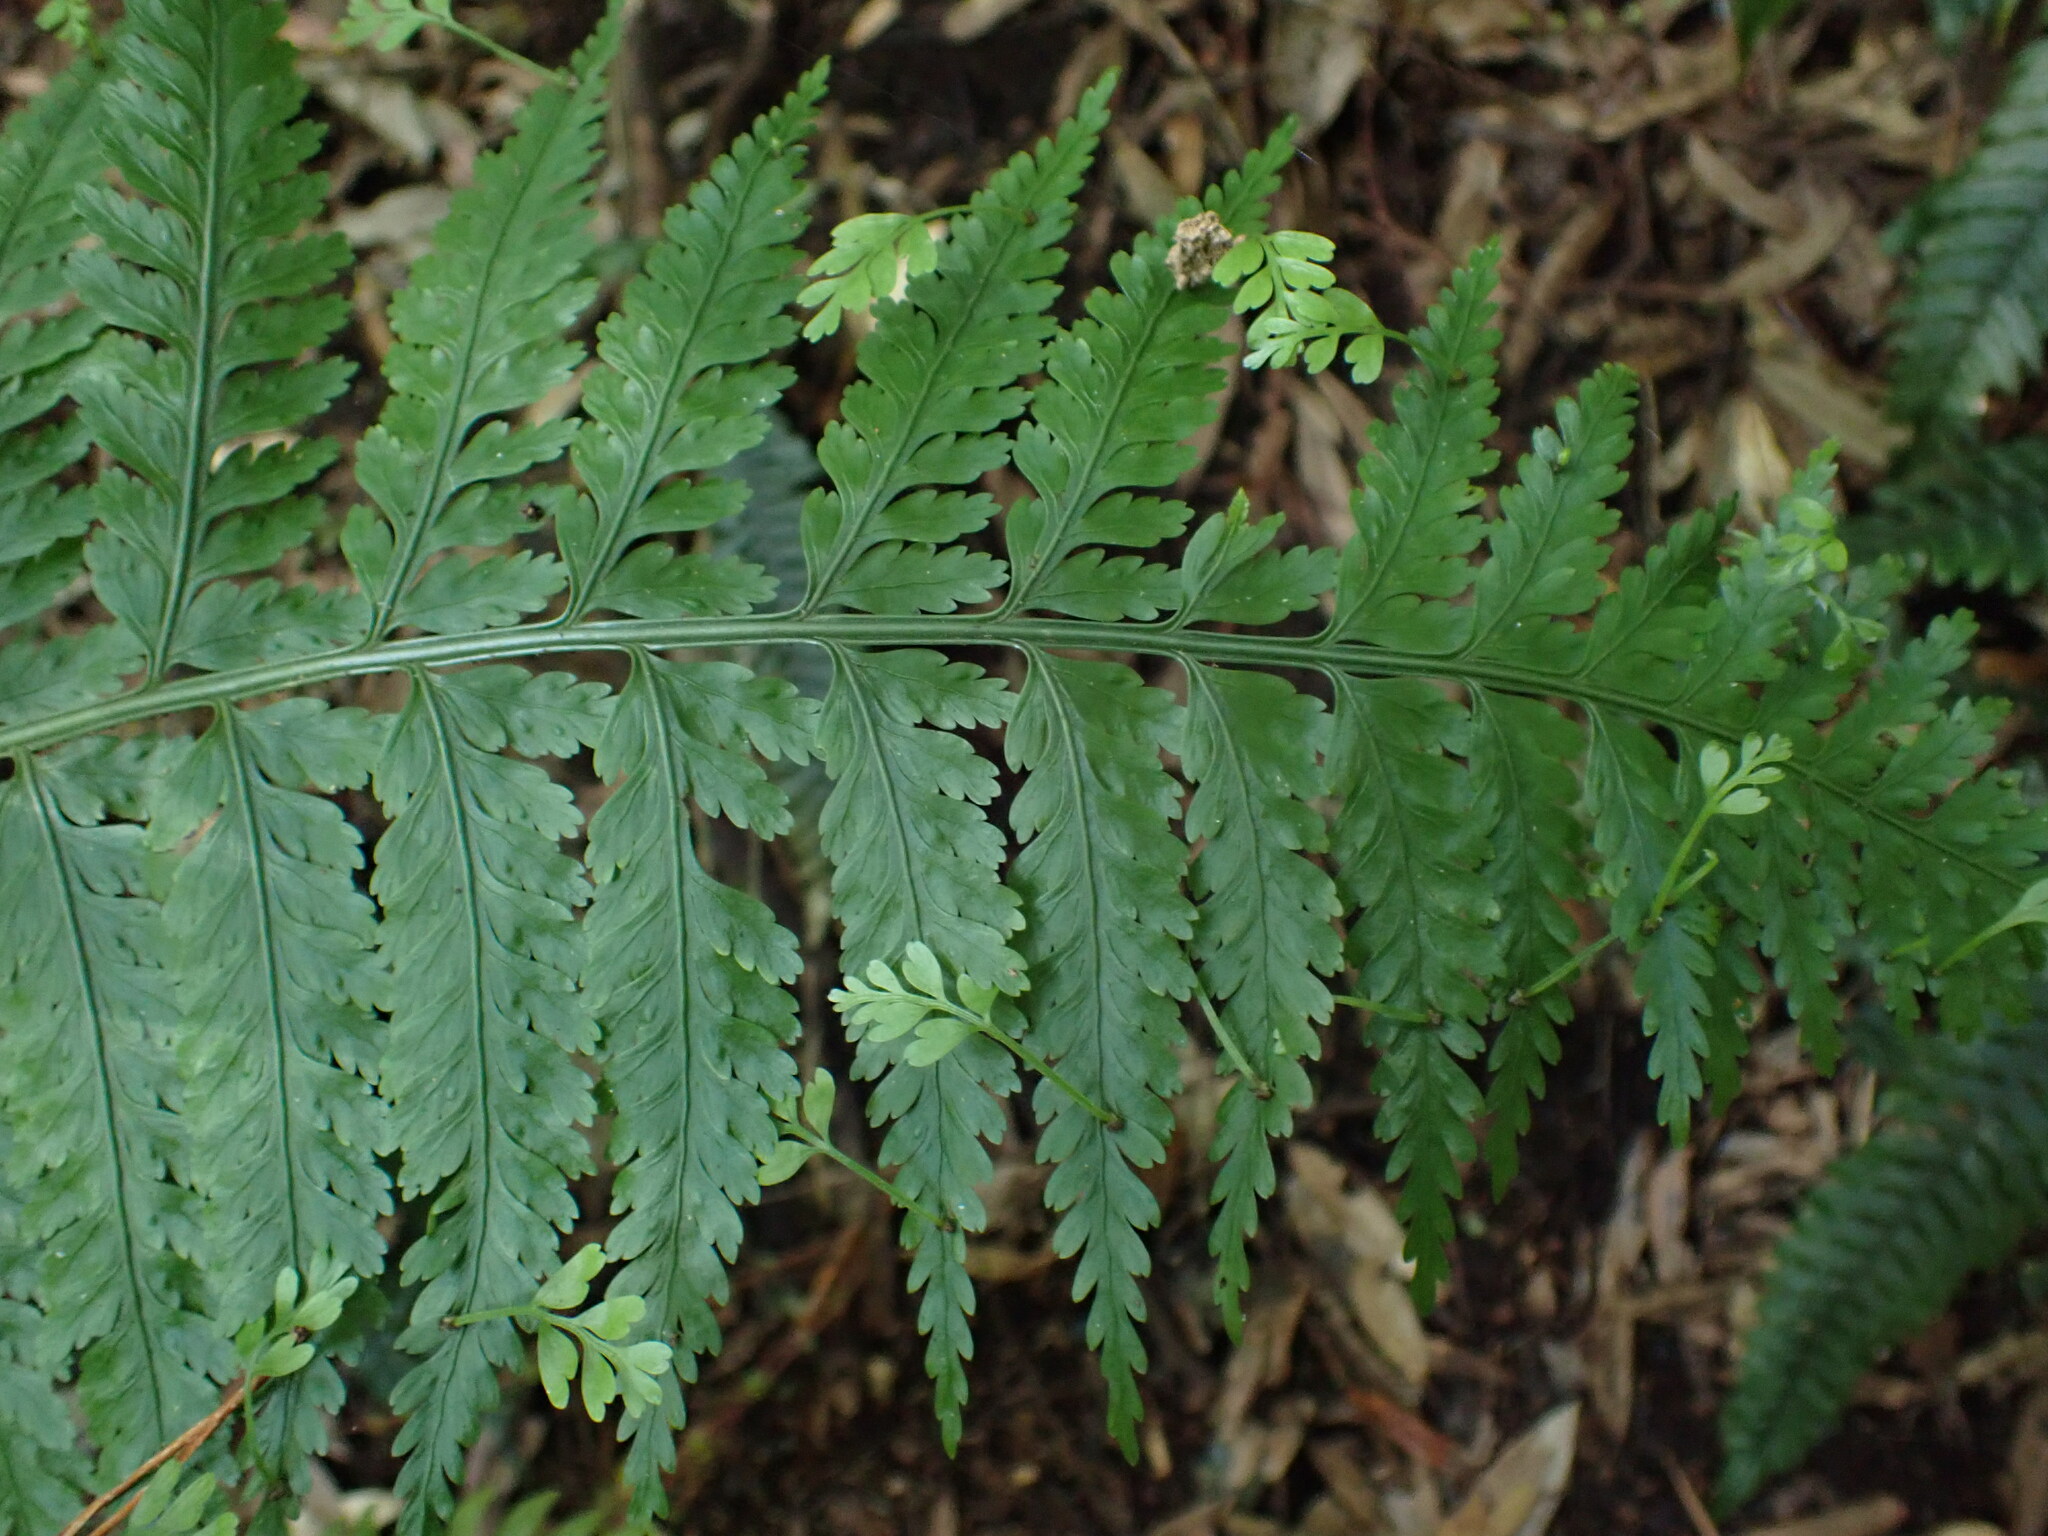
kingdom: Plantae
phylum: Tracheophyta
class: Polypodiopsida
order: Polypodiales
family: Aspleniaceae
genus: Asplenium
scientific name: Asplenium bulbiferum
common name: Mother fern
